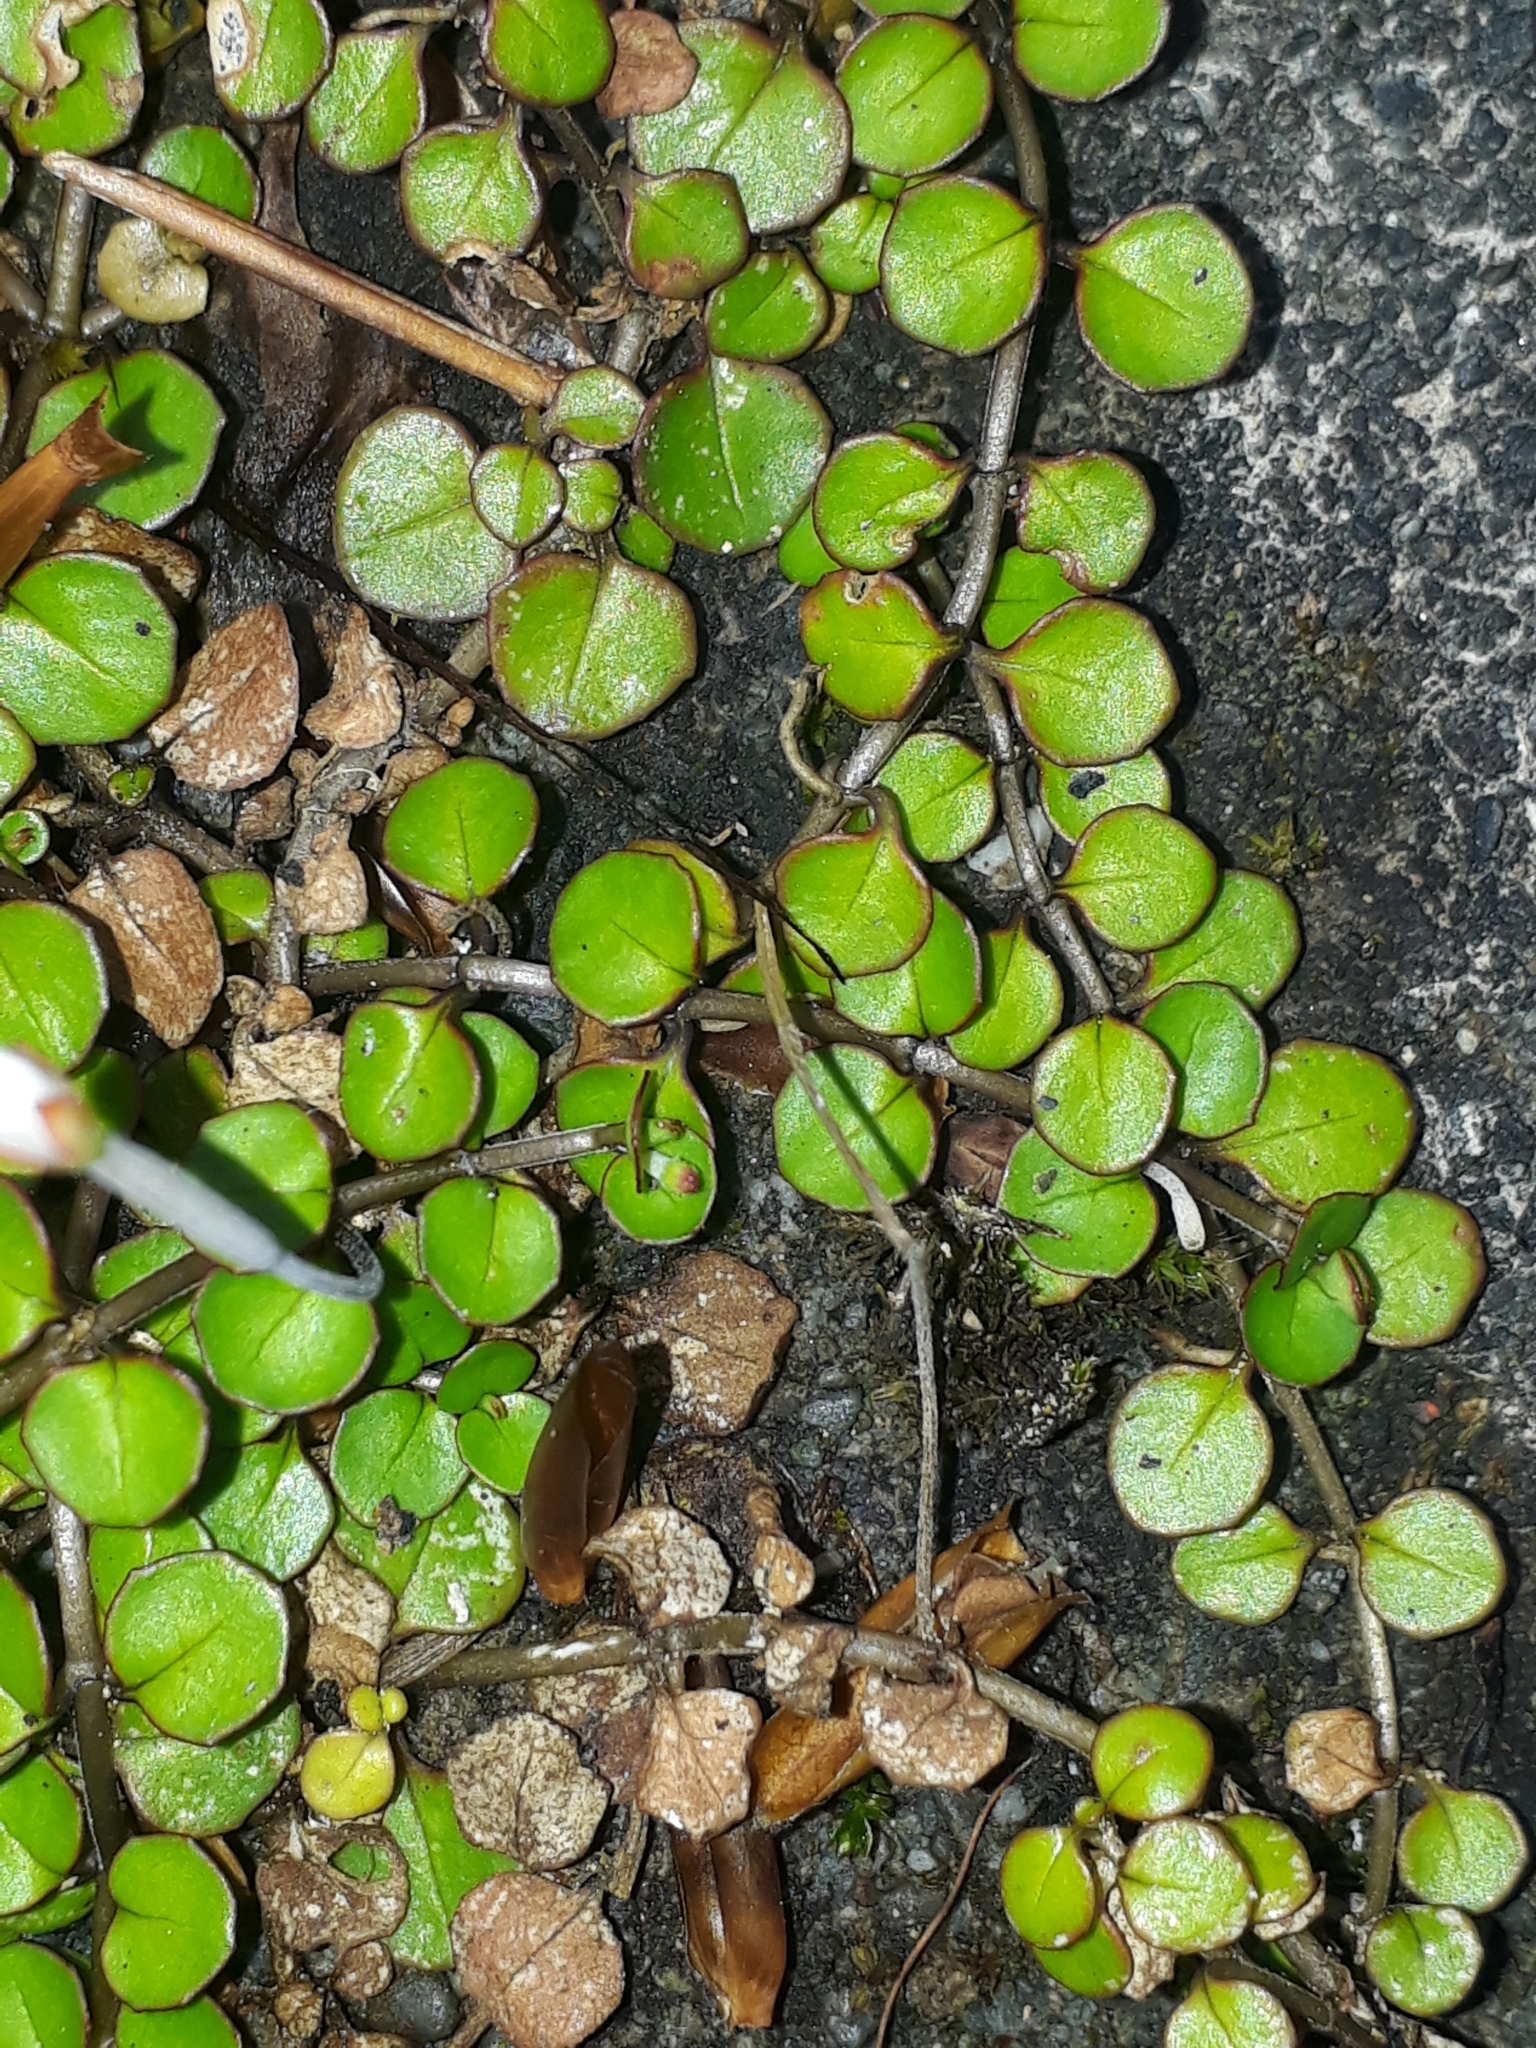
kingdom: Plantae
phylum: Tracheophyta
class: Magnoliopsida
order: Myrtales
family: Onagraceae
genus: Epilobium
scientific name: Epilobium nummularifolium
